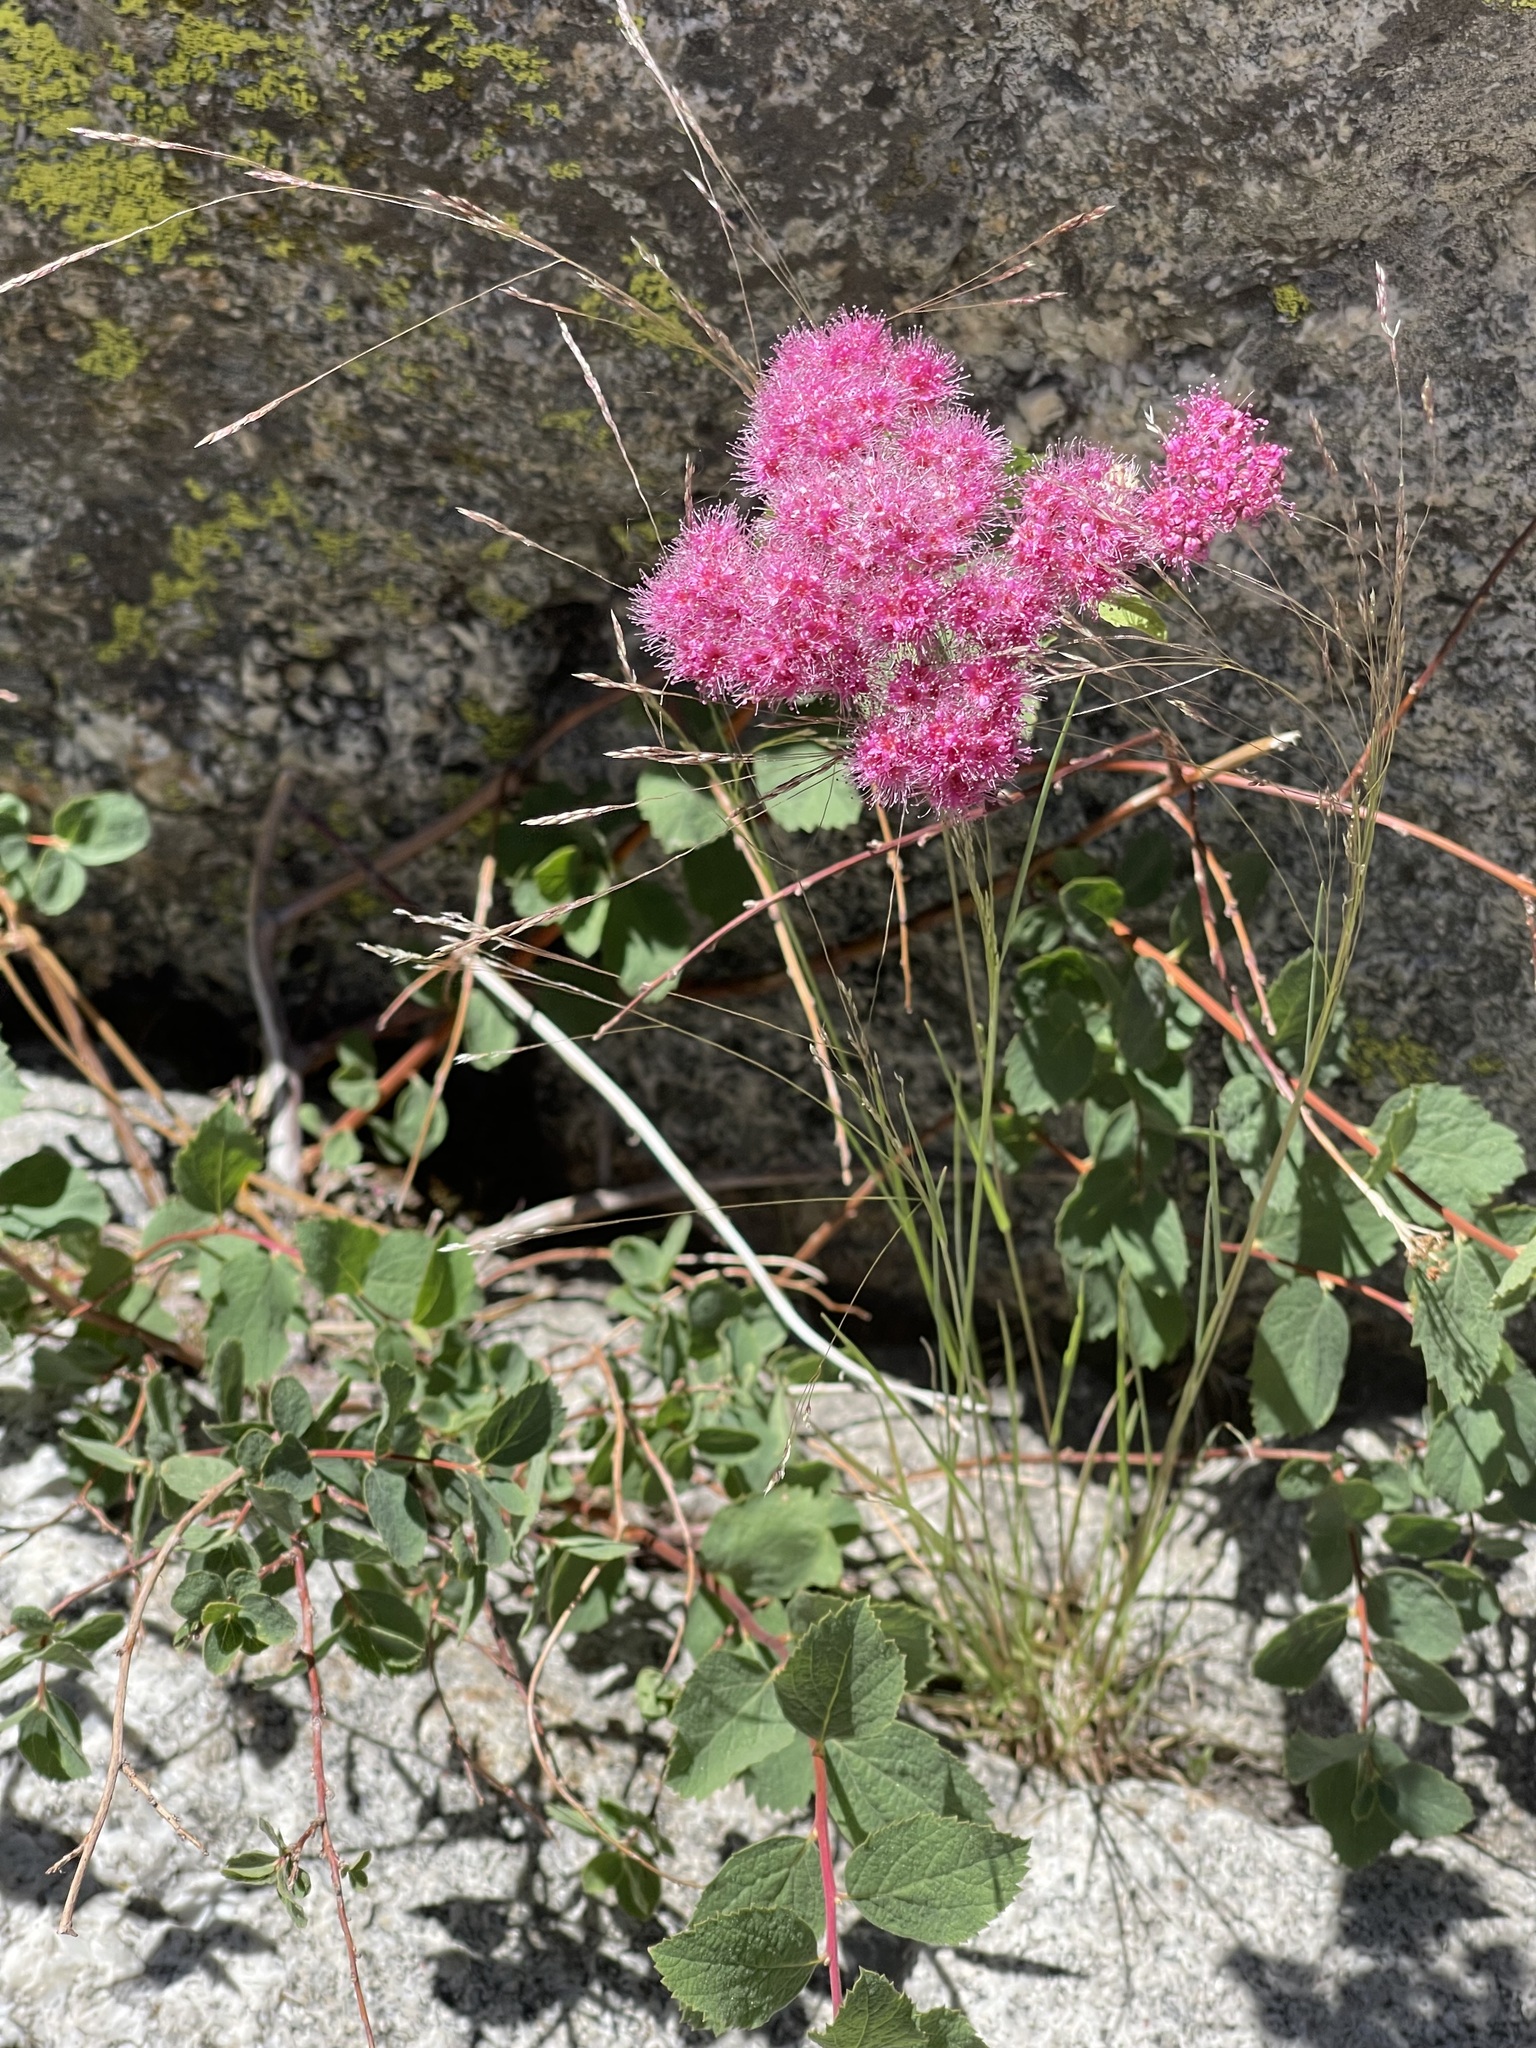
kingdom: Plantae
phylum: Tracheophyta
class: Magnoliopsida
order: Rosales
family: Rosaceae
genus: Spiraea
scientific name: Spiraea splendens
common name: Subalpine meadowsweet
